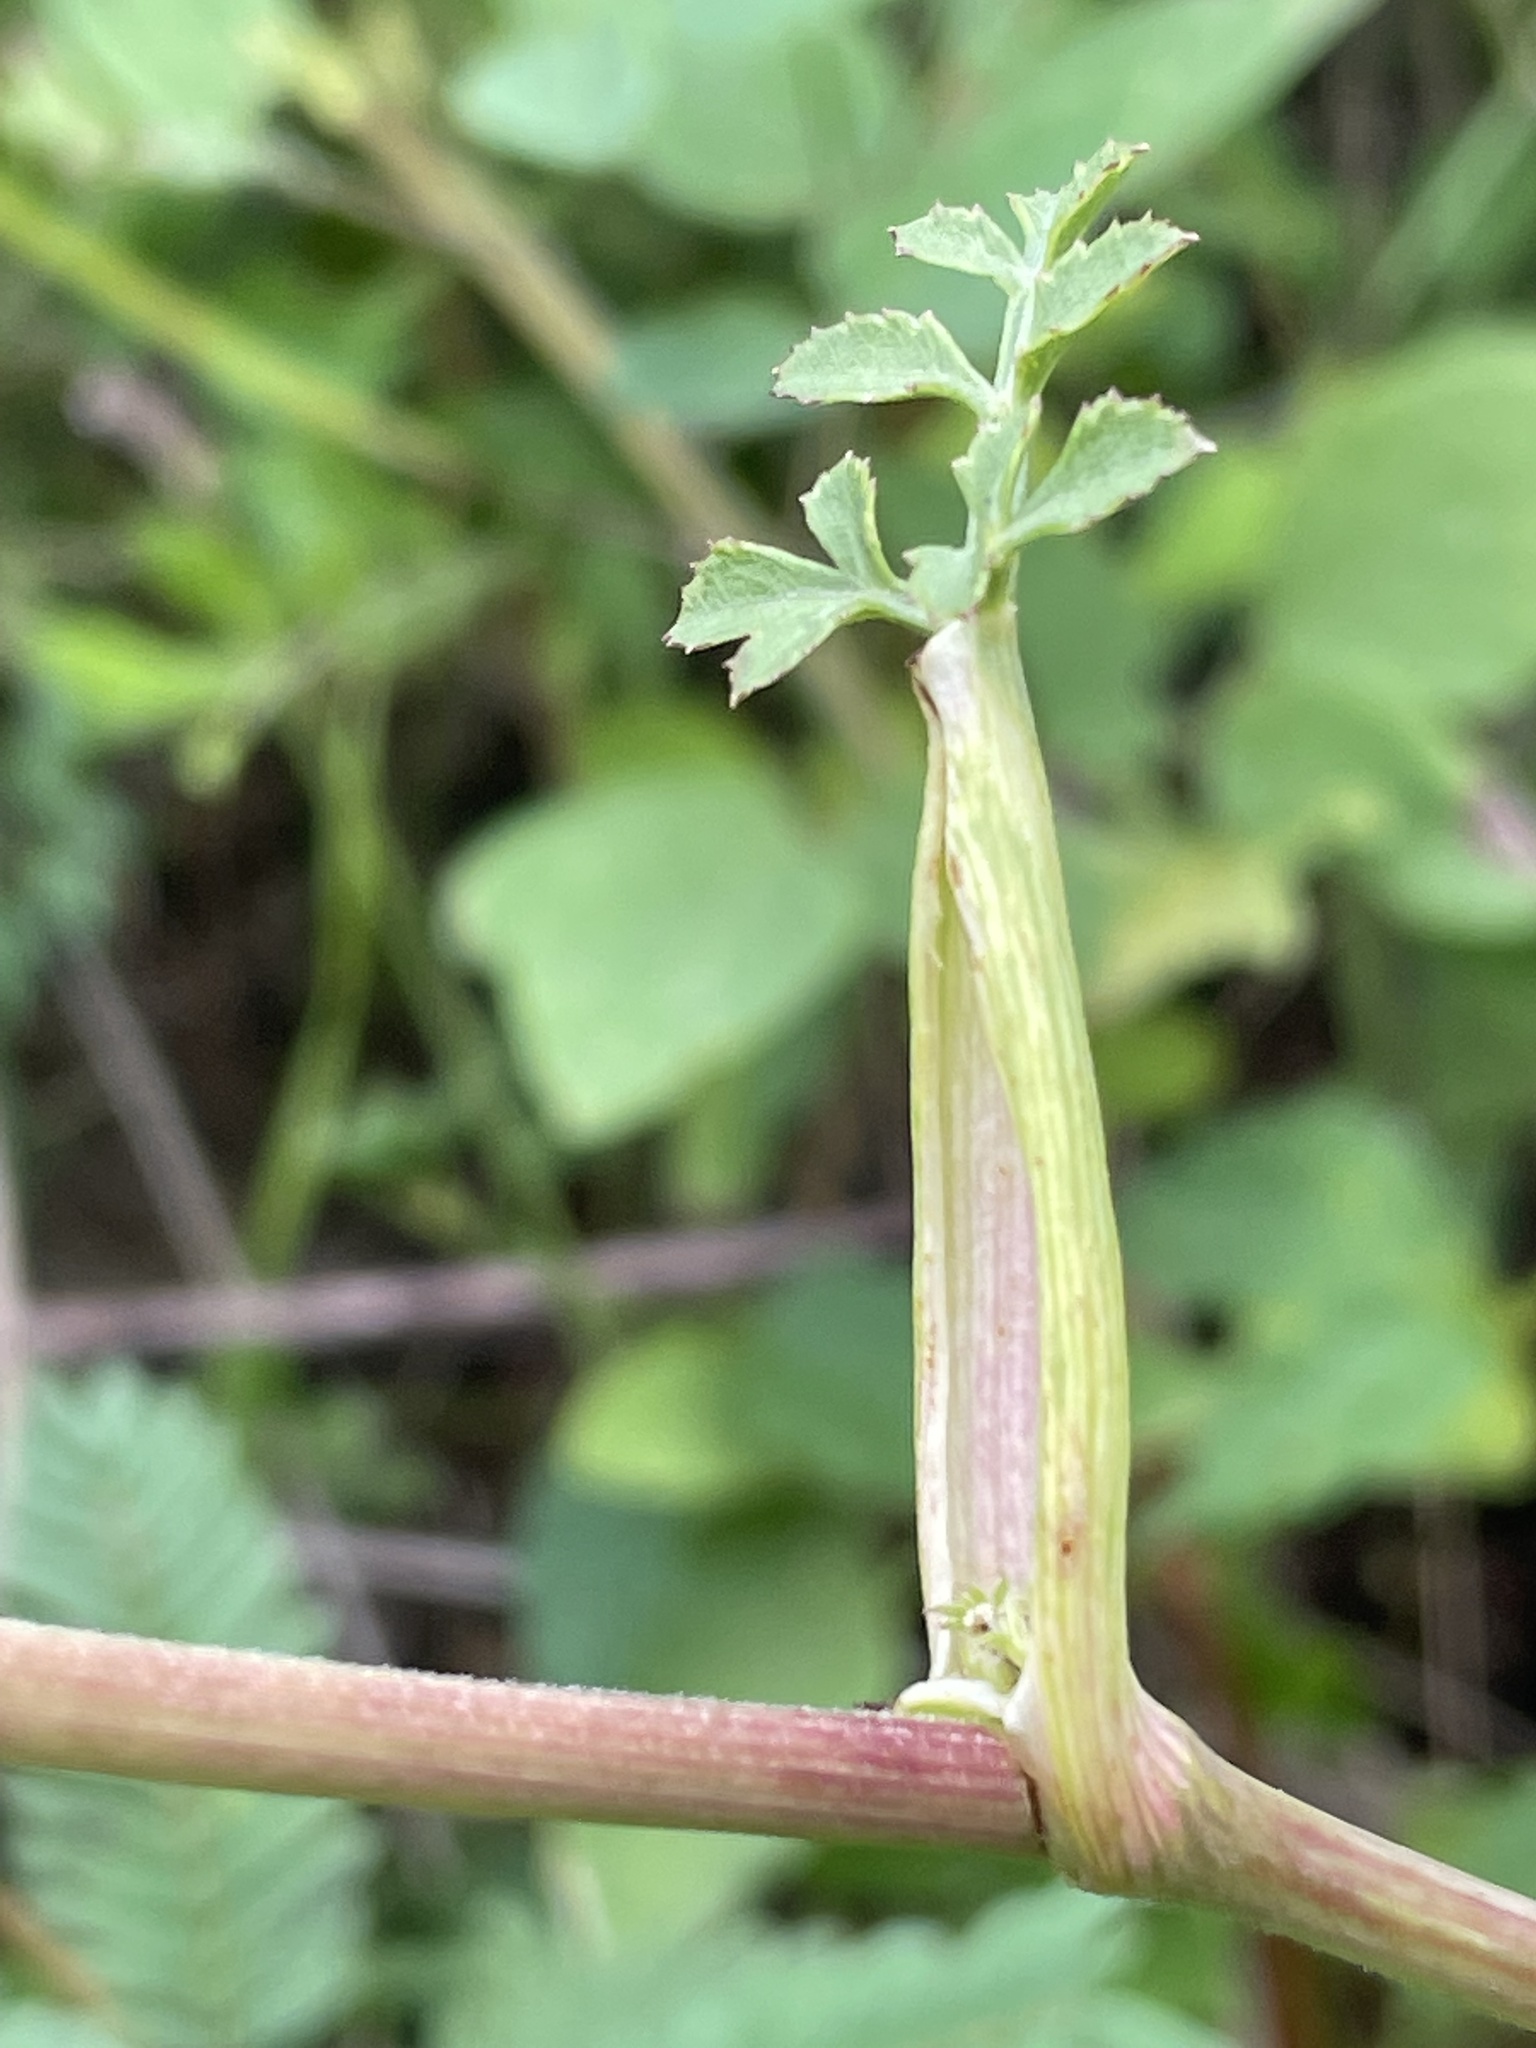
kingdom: Plantae
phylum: Tracheophyta
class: Magnoliopsida
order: Apiales
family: Apiaceae
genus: Angelica
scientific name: Angelica venenosa
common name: Hairy angelica
